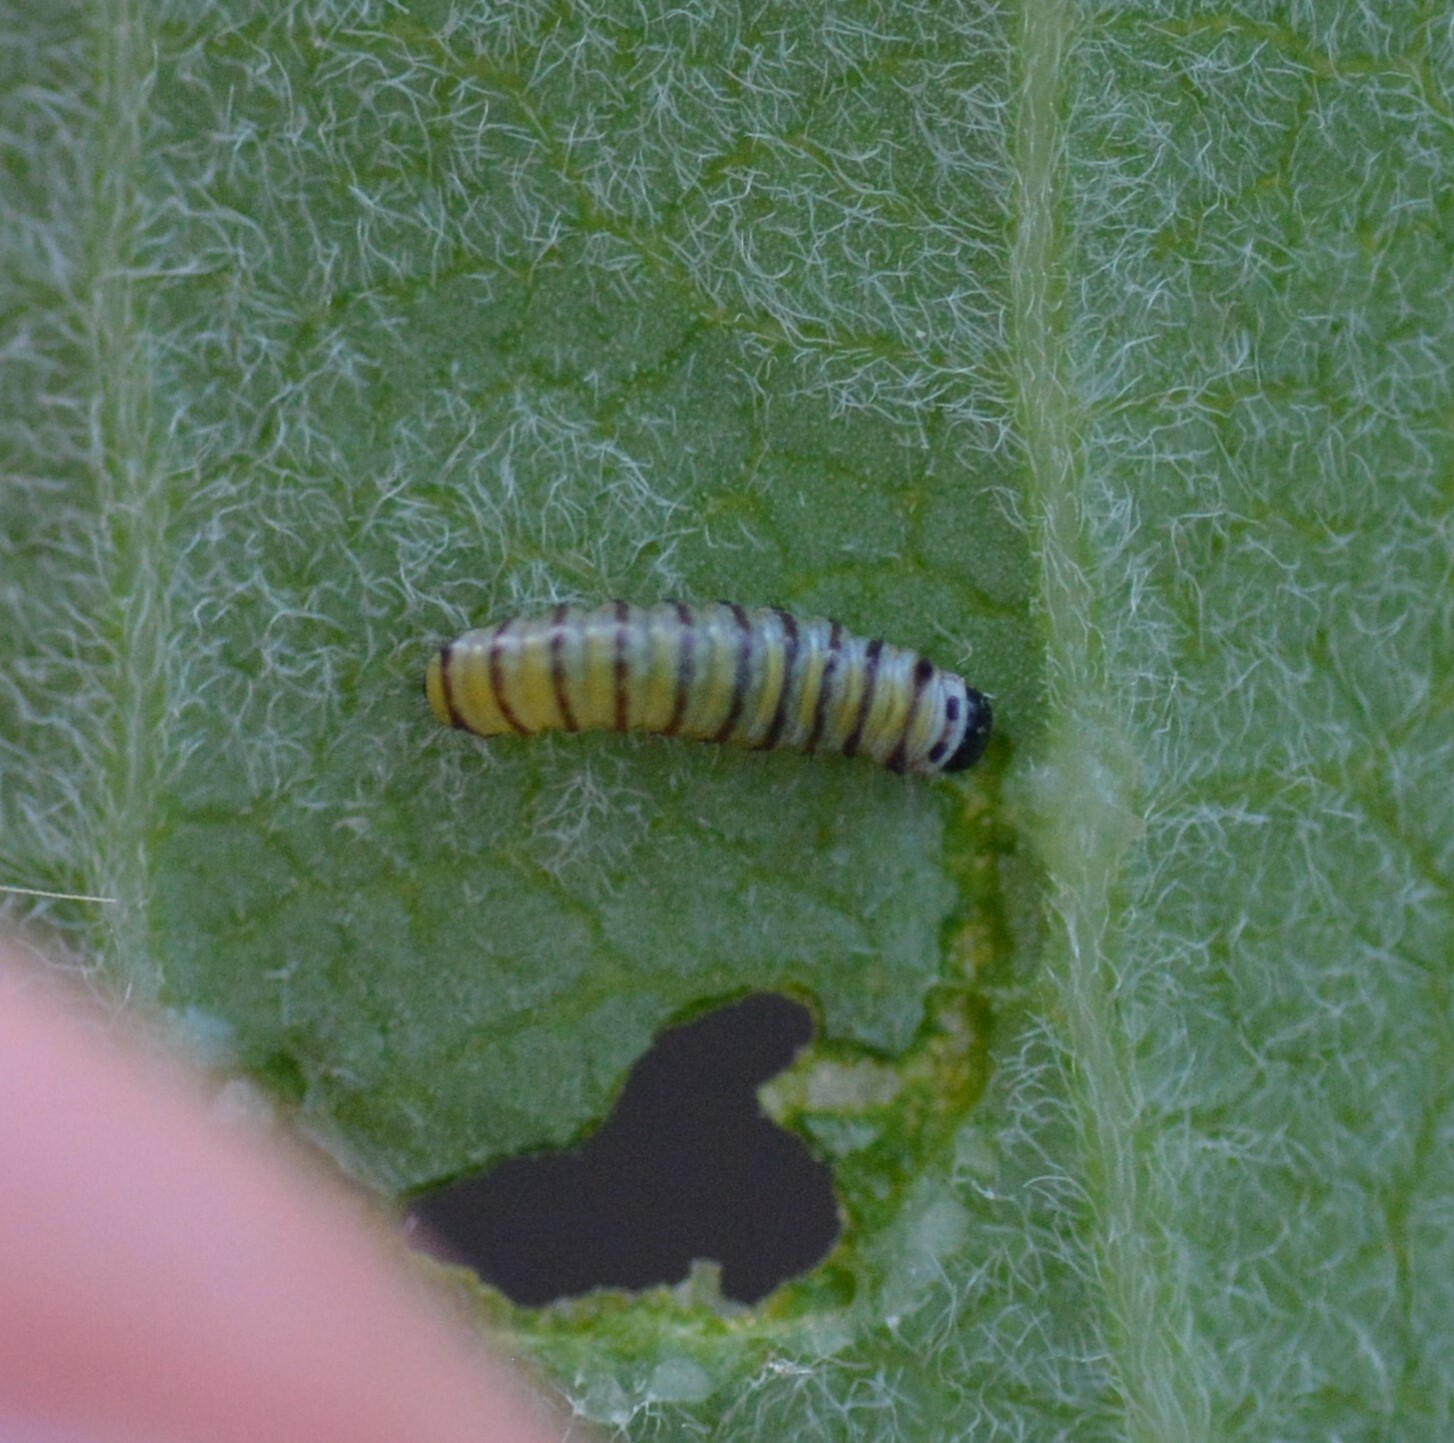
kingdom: Animalia
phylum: Arthropoda
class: Insecta
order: Lepidoptera
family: Nymphalidae
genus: Danaus
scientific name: Danaus plexippus
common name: Monarch
